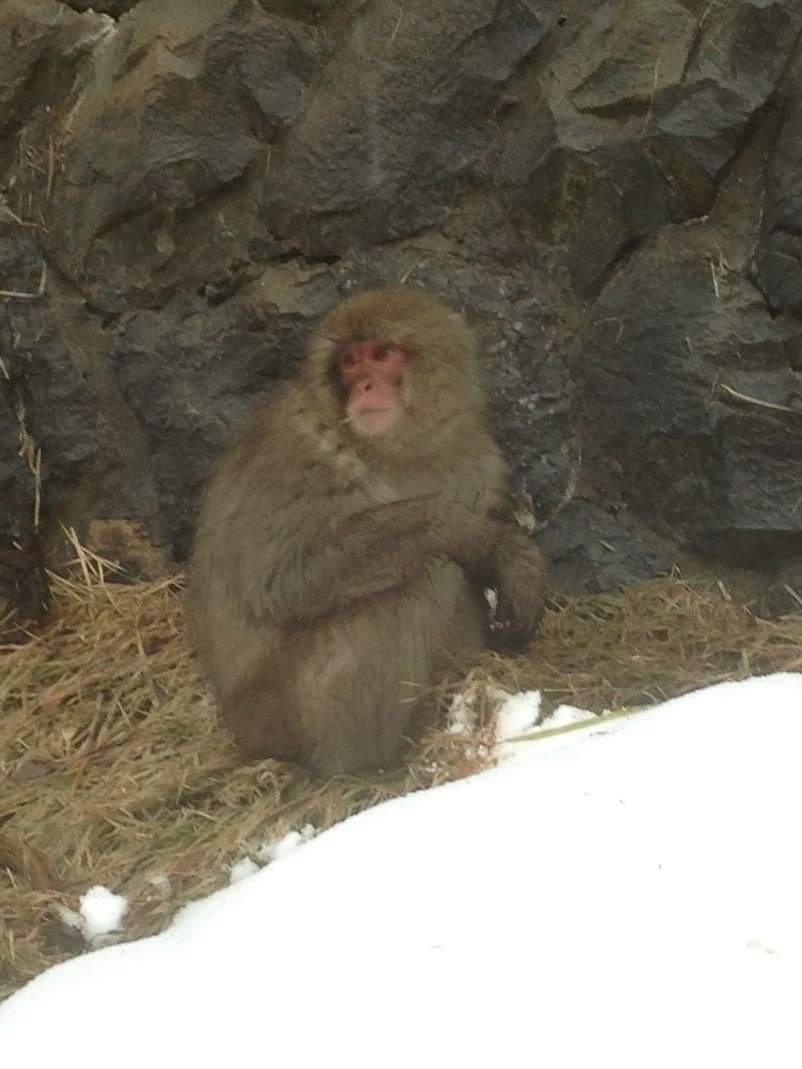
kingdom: Animalia
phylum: Chordata
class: Mammalia
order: Primates
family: Cercopithecidae
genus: Macaca
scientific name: Macaca fuscata
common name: Japanese macaque
